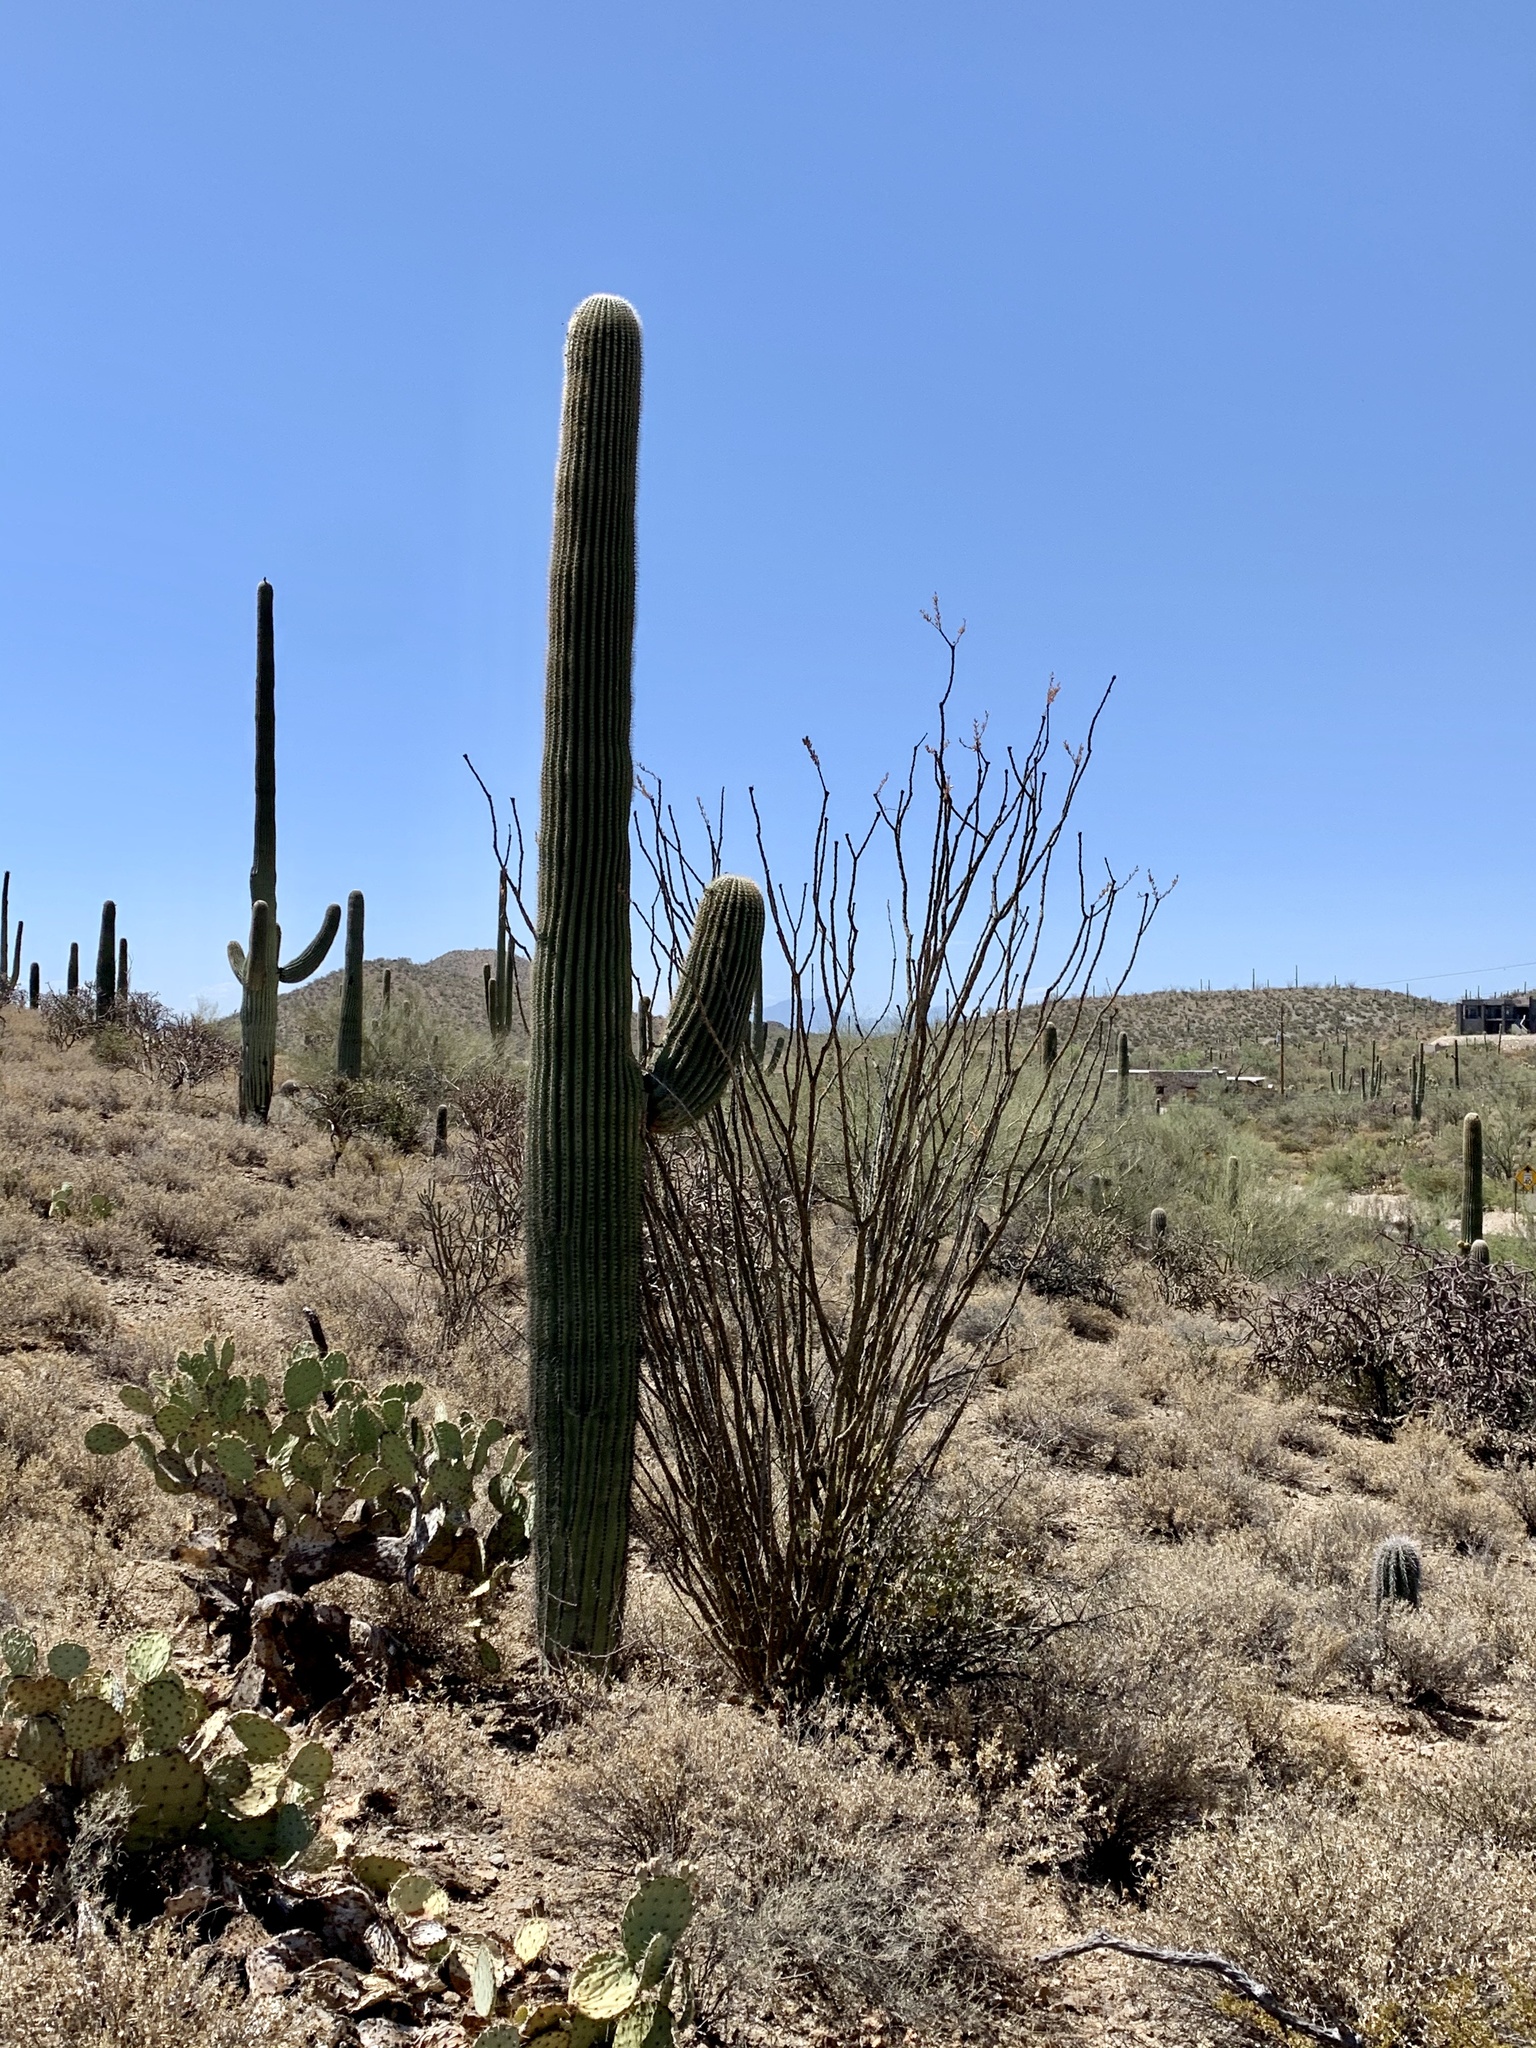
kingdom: Plantae
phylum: Tracheophyta
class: Magnoliopsida
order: Caryophyllales
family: Cactaceae
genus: Carnegiea
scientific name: Carnegiea gigantea
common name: Saguaro
